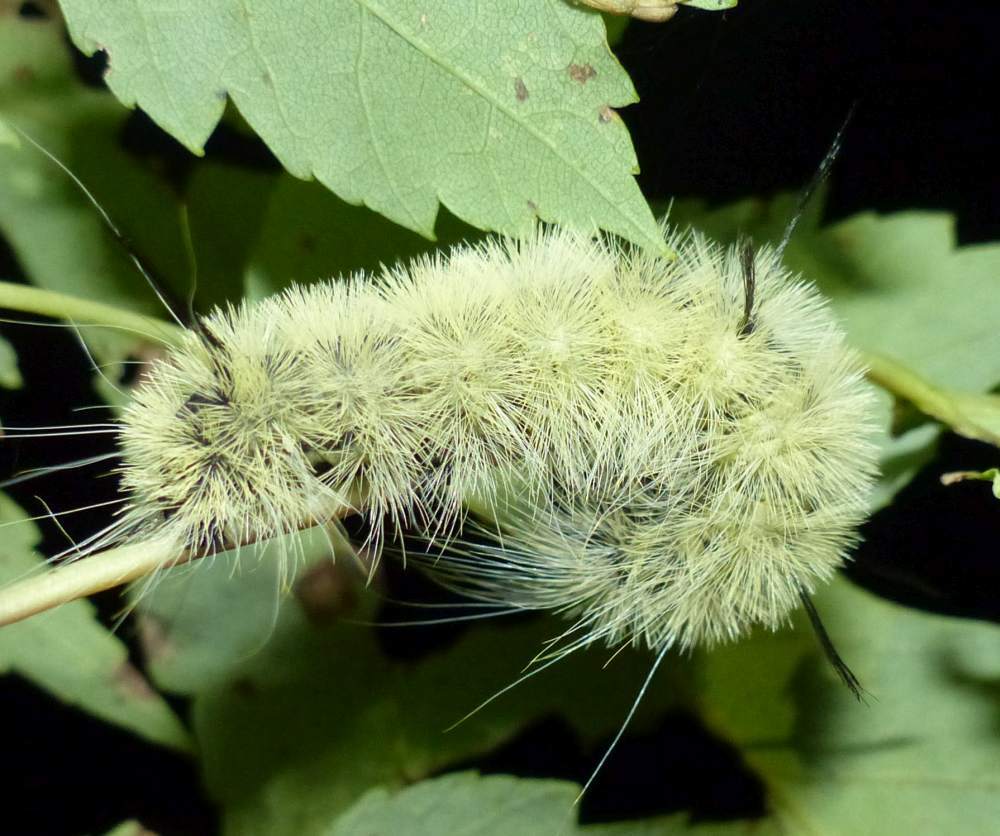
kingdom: Animalia
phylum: Arthropoda
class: Insecta
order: Lepidoptera
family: Noctuidae
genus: Acronicta
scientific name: Acronicta americana
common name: American dagger
